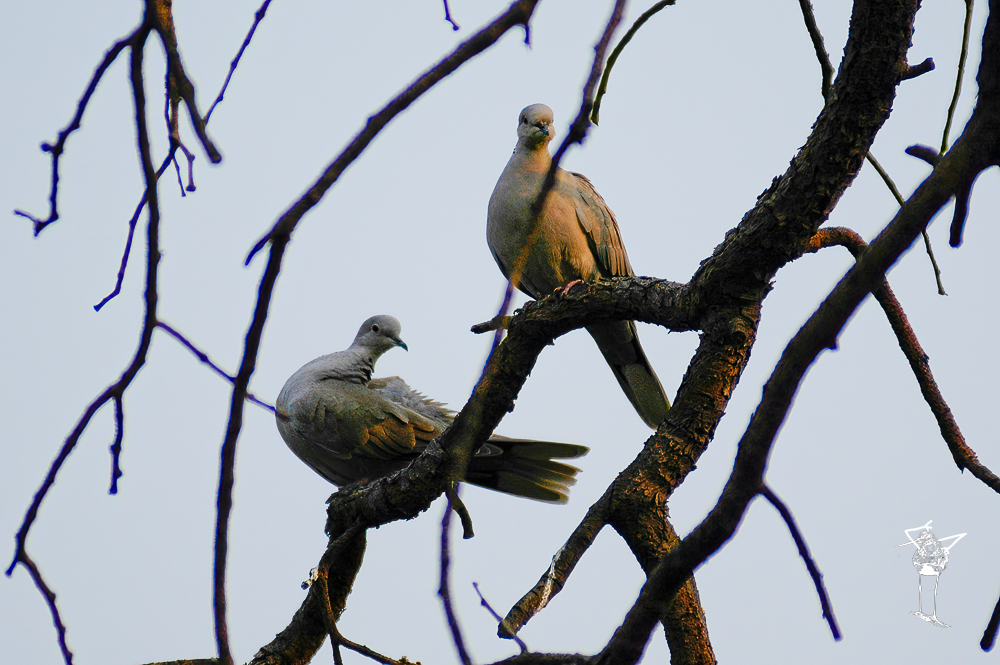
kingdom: Animalia
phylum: Chordata
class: Aves
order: Columbiformes
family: Columbidae
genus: Streptopelia
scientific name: Streptopelia decaocto
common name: Eurasian collared dove
